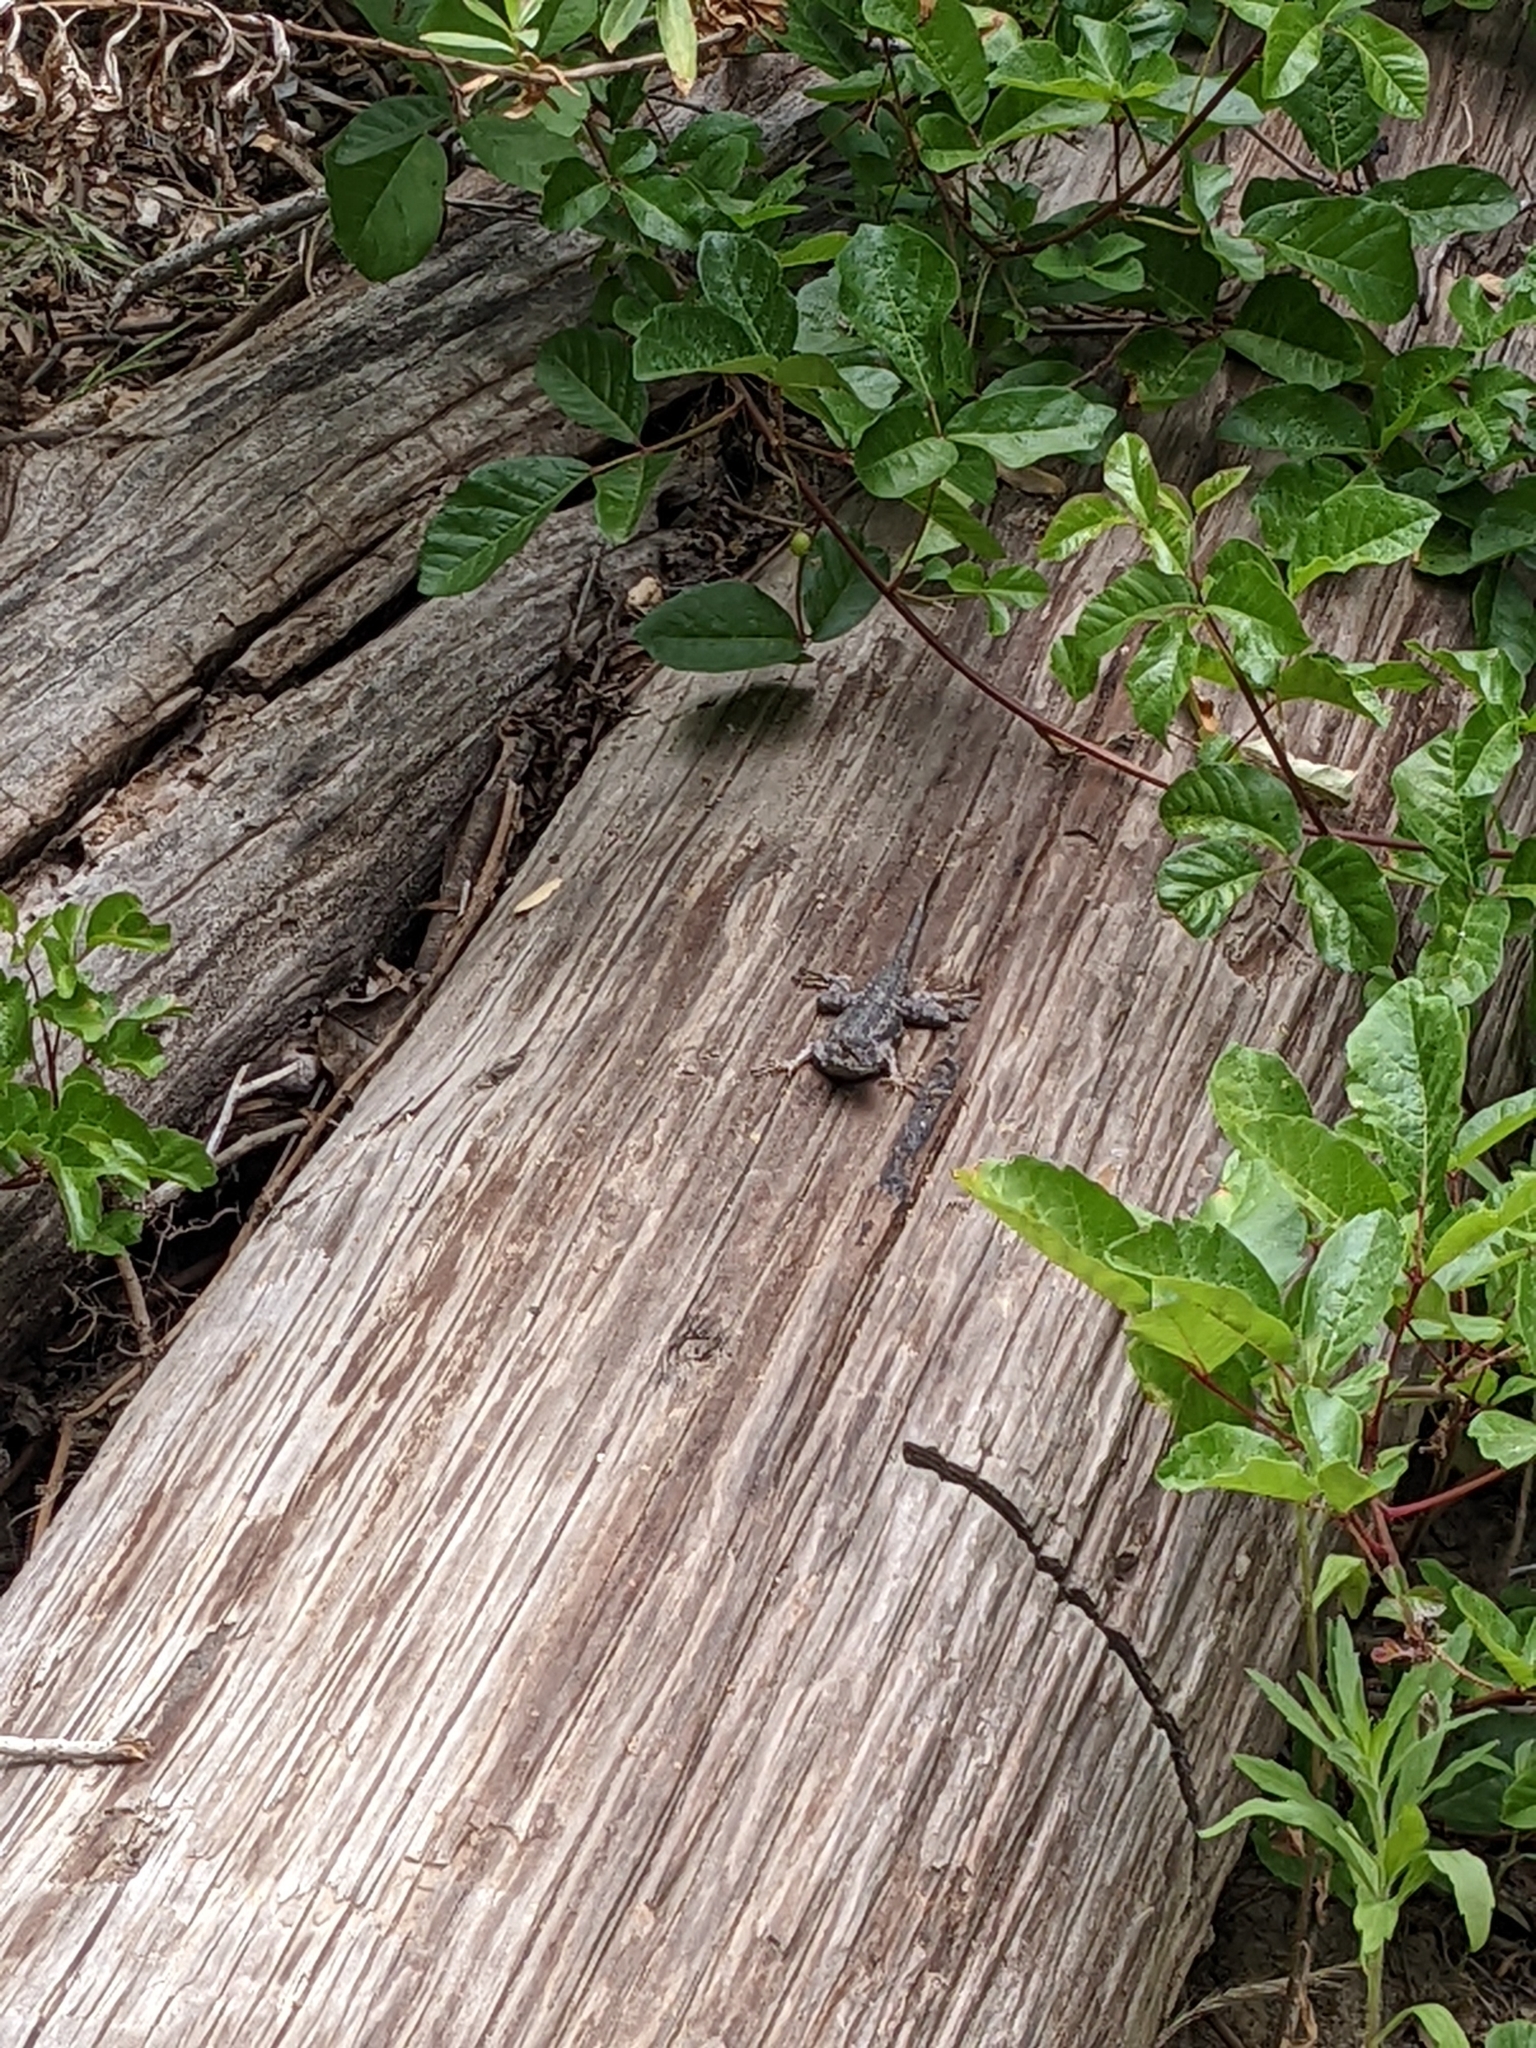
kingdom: Animalia
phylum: Chordata
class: Squamata
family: Phrynosomatidae
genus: Sceloporus
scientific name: Sceloporus occidentalis
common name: Western fence lizard
